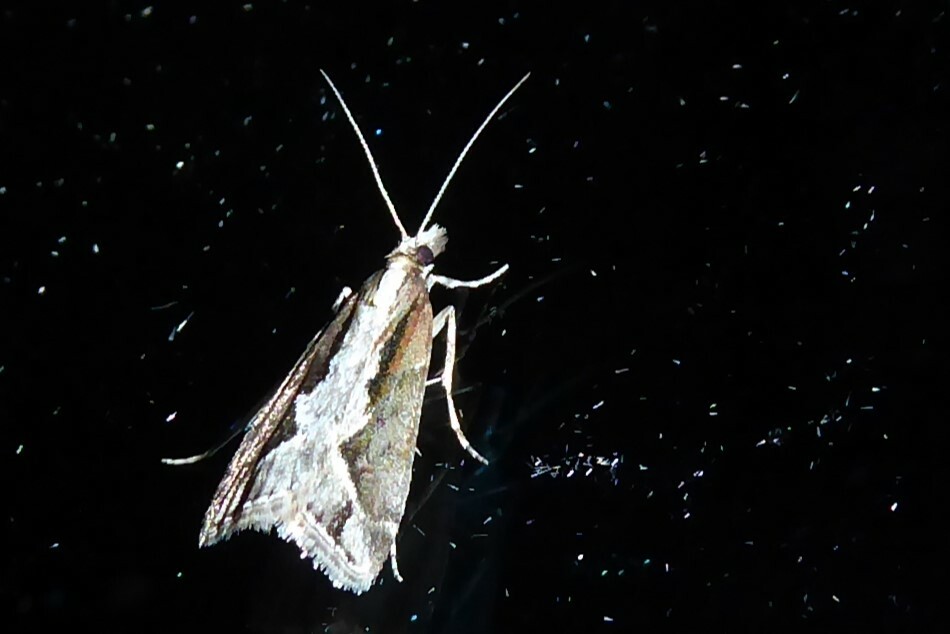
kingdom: Animalia
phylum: Arthropoda
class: Insecta
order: Lepidoptera
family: Crambidae
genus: Eudonia
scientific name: Eudonia steropaea
